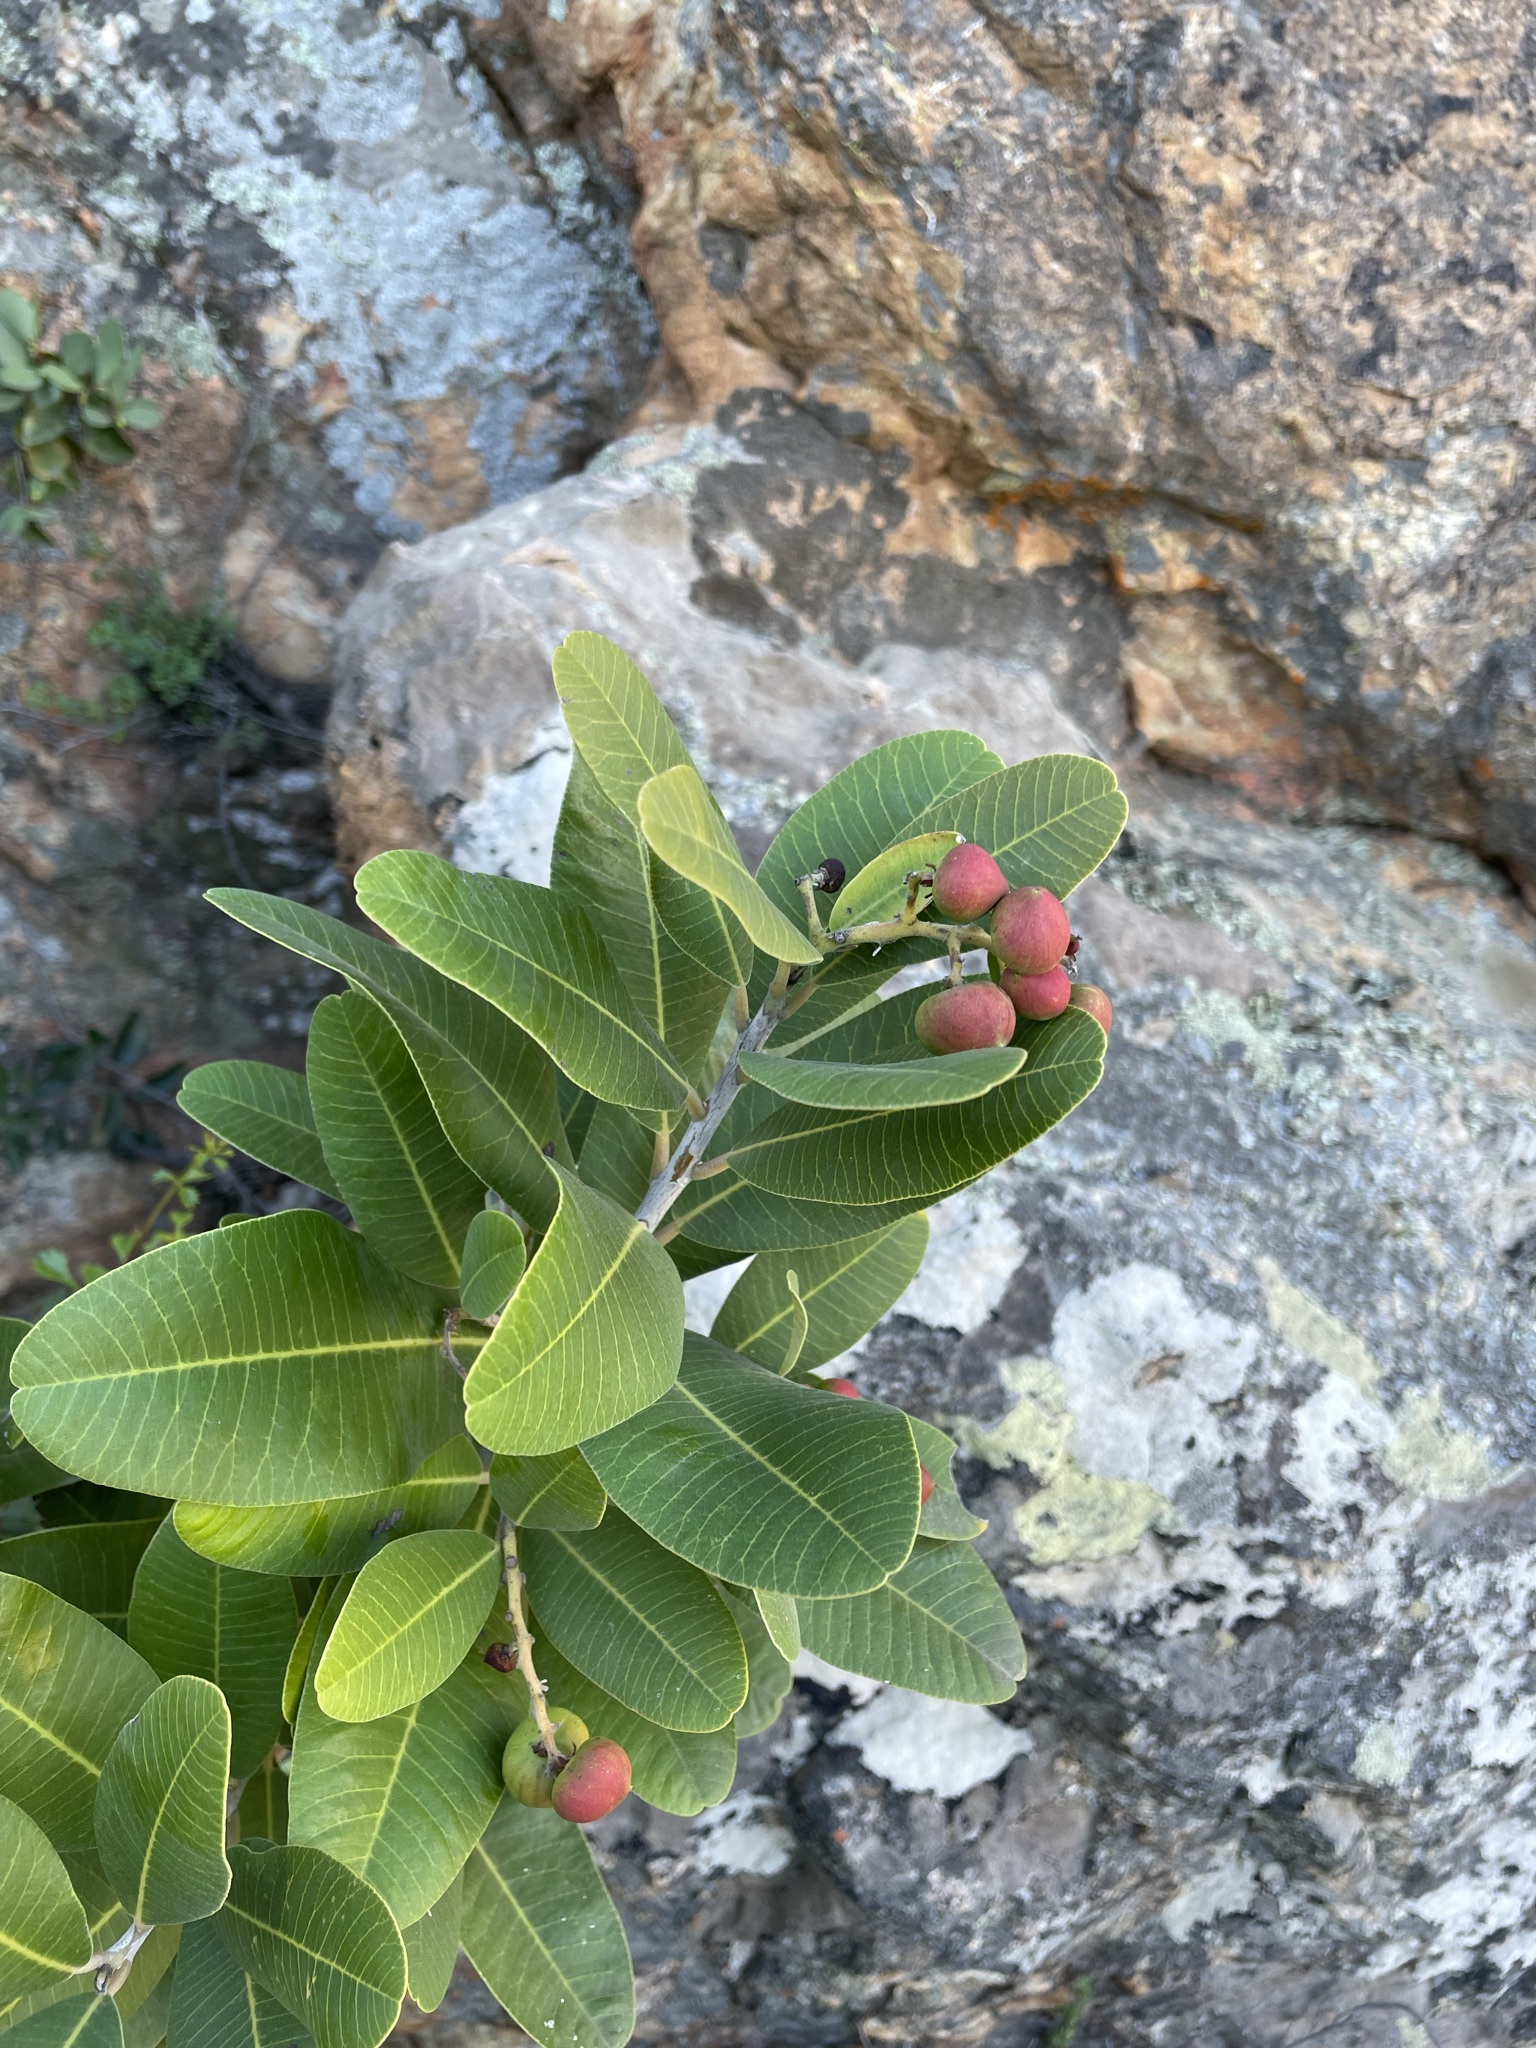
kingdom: Plantae
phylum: Tracheophyta
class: Magnoliopsida
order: Sapindales
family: Anacardiaceae
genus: Heeria
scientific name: Heeria argentea
